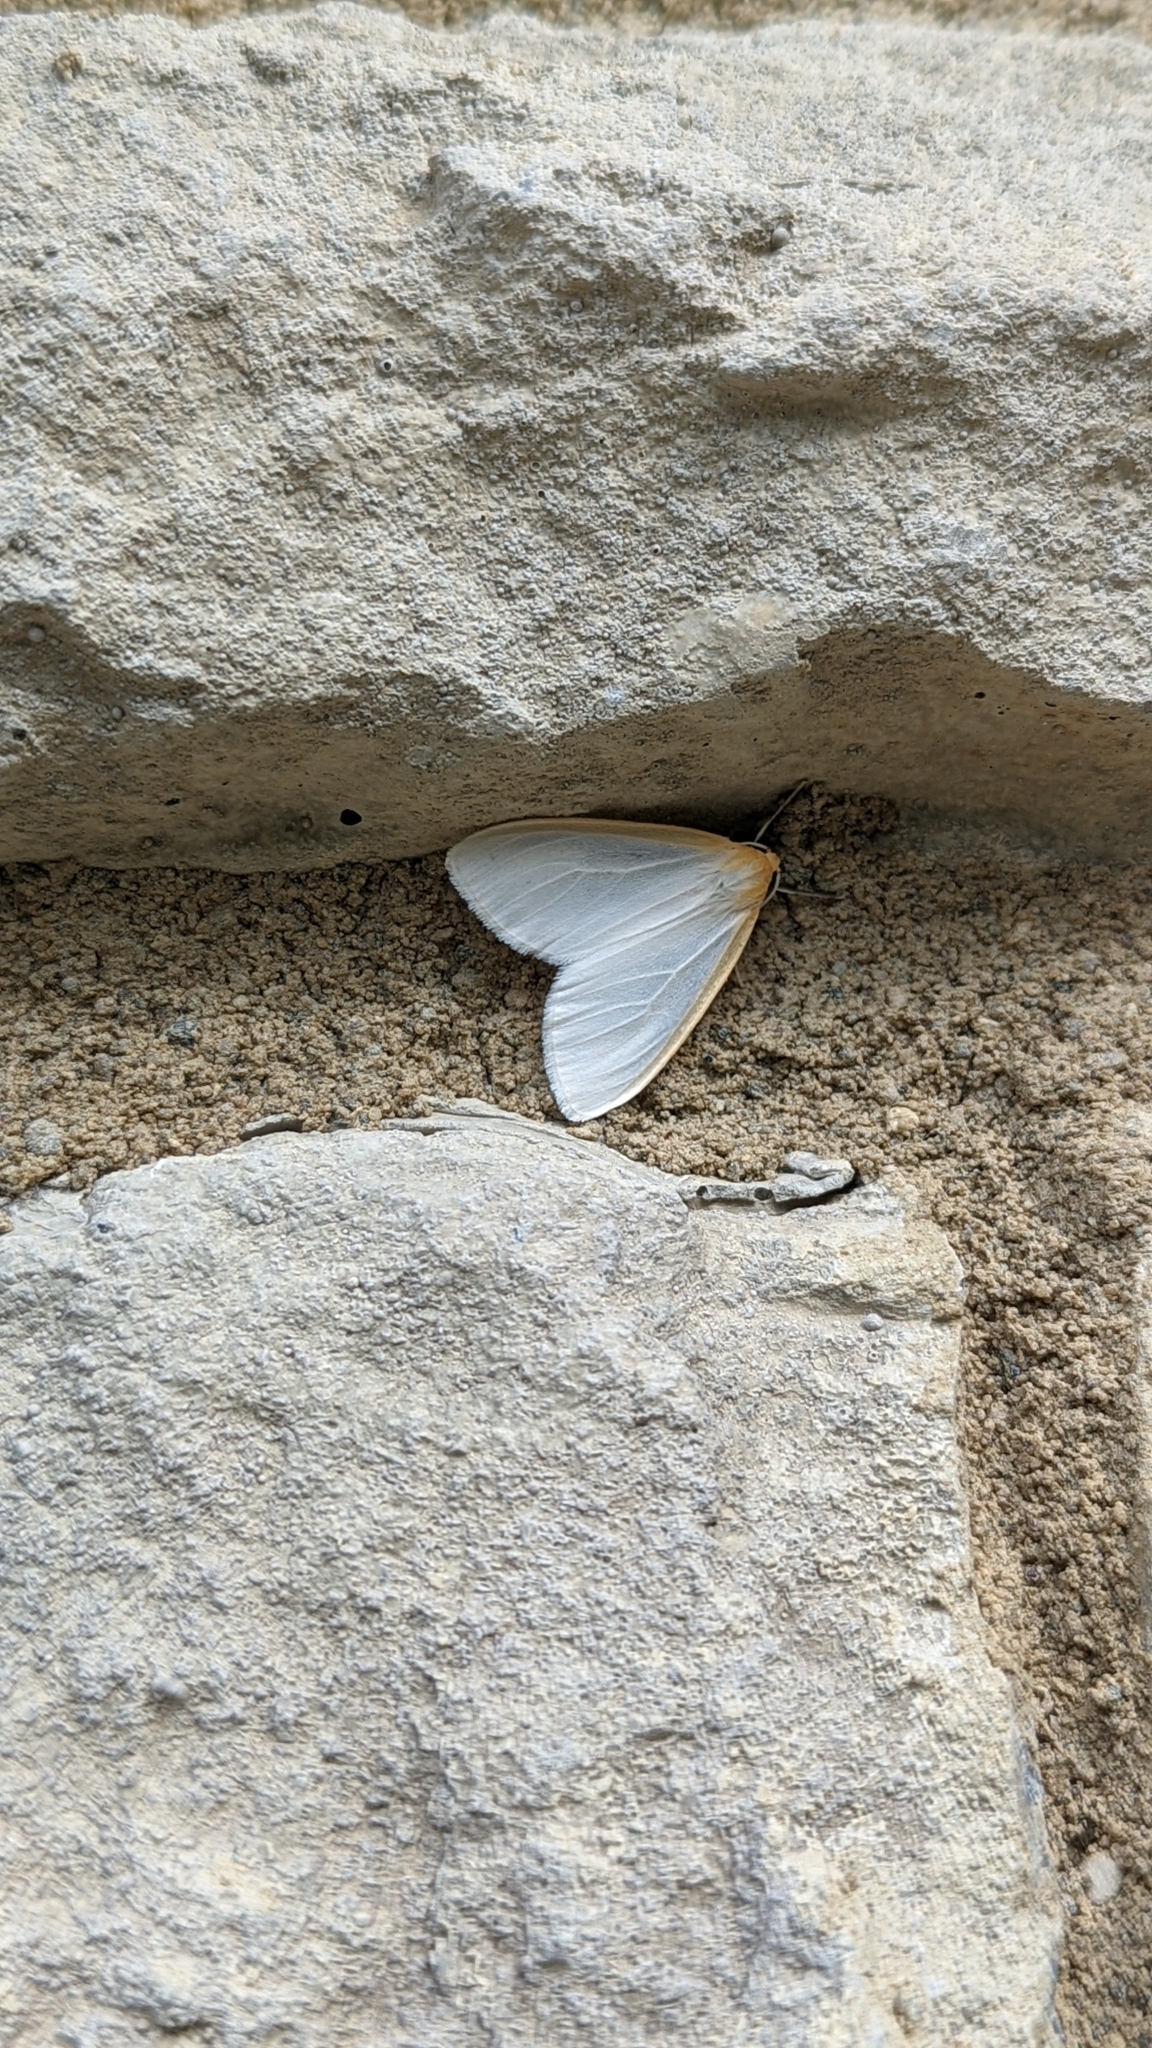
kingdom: Animalia
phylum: Arthropoda
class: Insecta
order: Lepidoptera
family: Erebidae
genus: Cycnia
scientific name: Cycnia tenera
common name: Delicate cycnia moth
